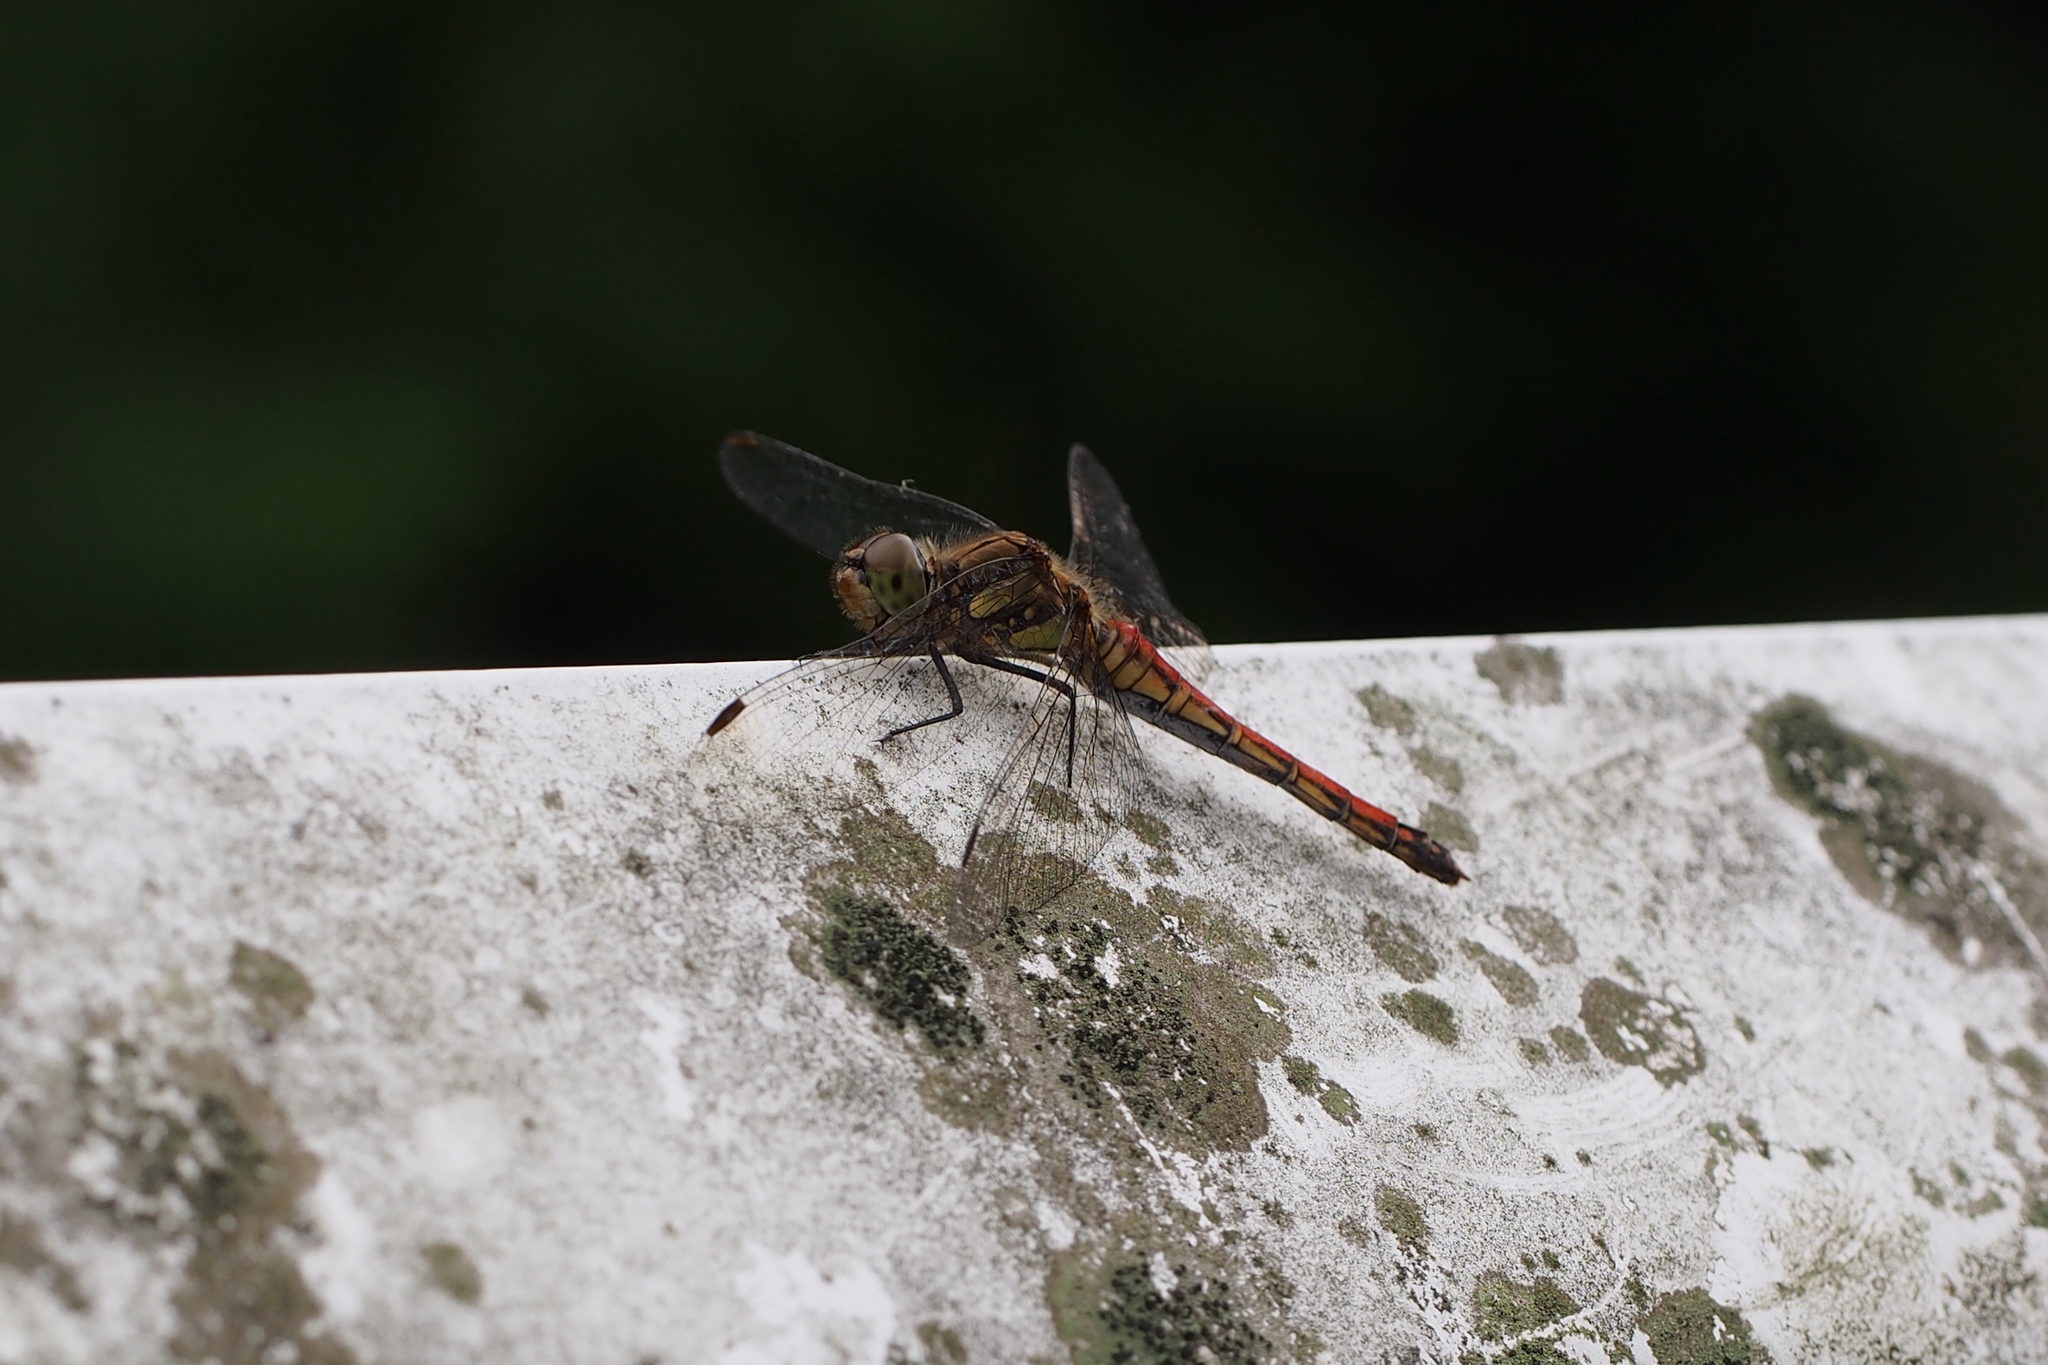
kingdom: Animalia
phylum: Arthropoda
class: Insecta
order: Odonata
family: Libellulidae
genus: Sympetrum
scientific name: Sympetrum frequens
